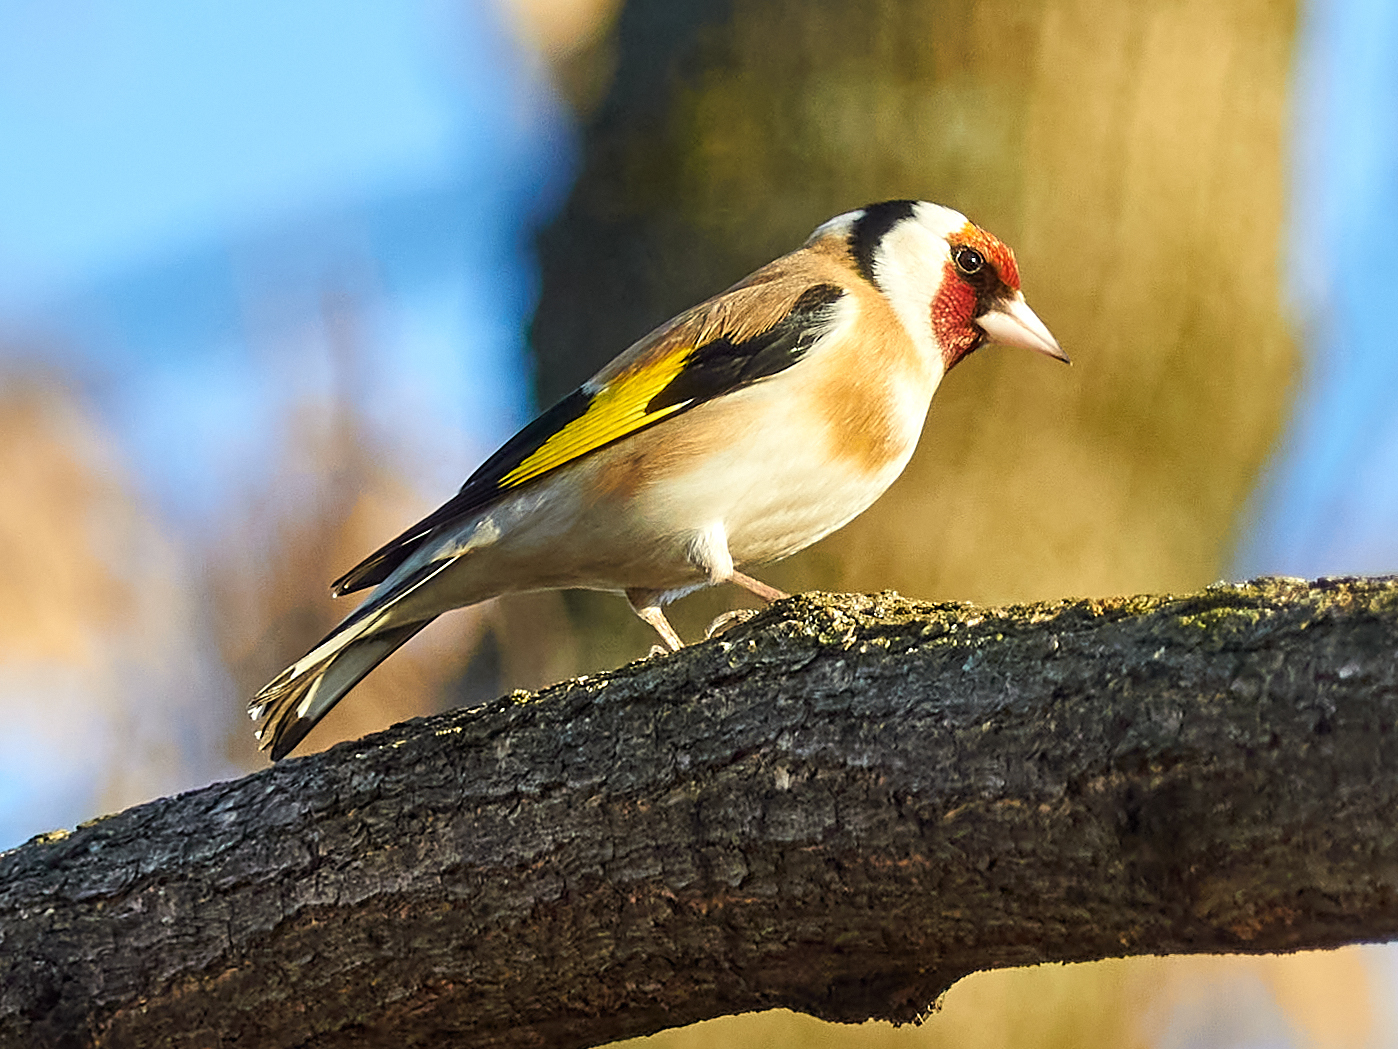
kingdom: Animalia
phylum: Chordata
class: Aves
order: Passeriformes
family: Fringillidae
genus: Carduelis
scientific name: Carduelis carduelis
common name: European goldfinch
